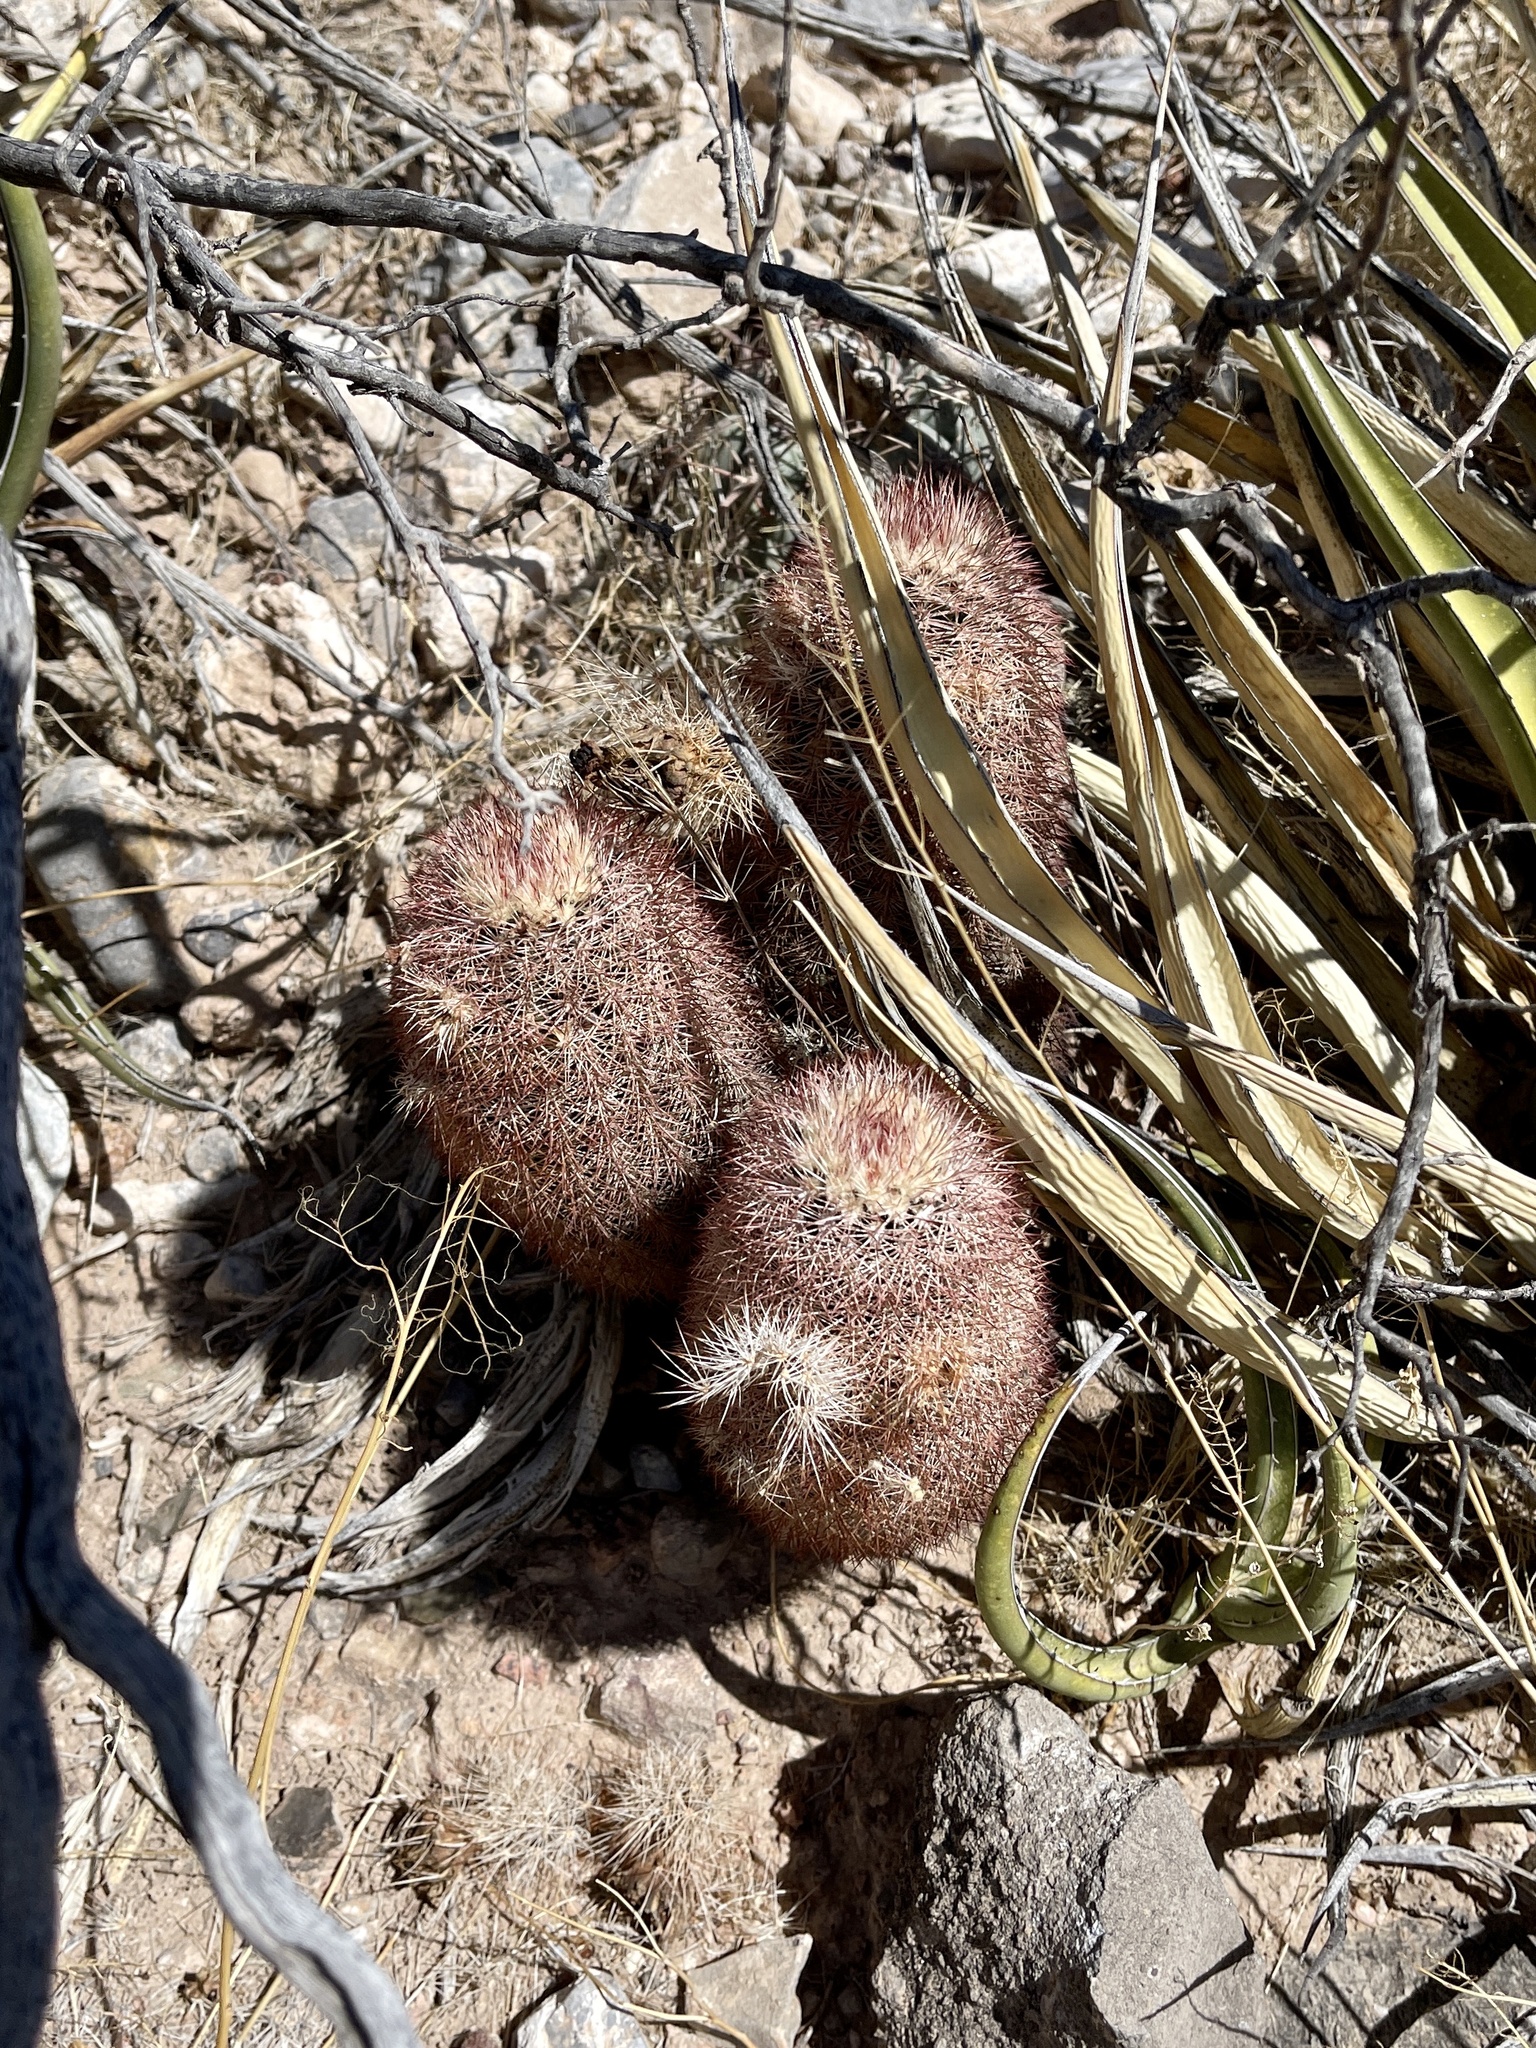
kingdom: Plantae
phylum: Tracheophyta
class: Magnoliopsida
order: Caryophyllales
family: Cactaceae
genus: Echinocereus
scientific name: Echinocereus dasyacanthus
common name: Spiny hedgehog cactus
